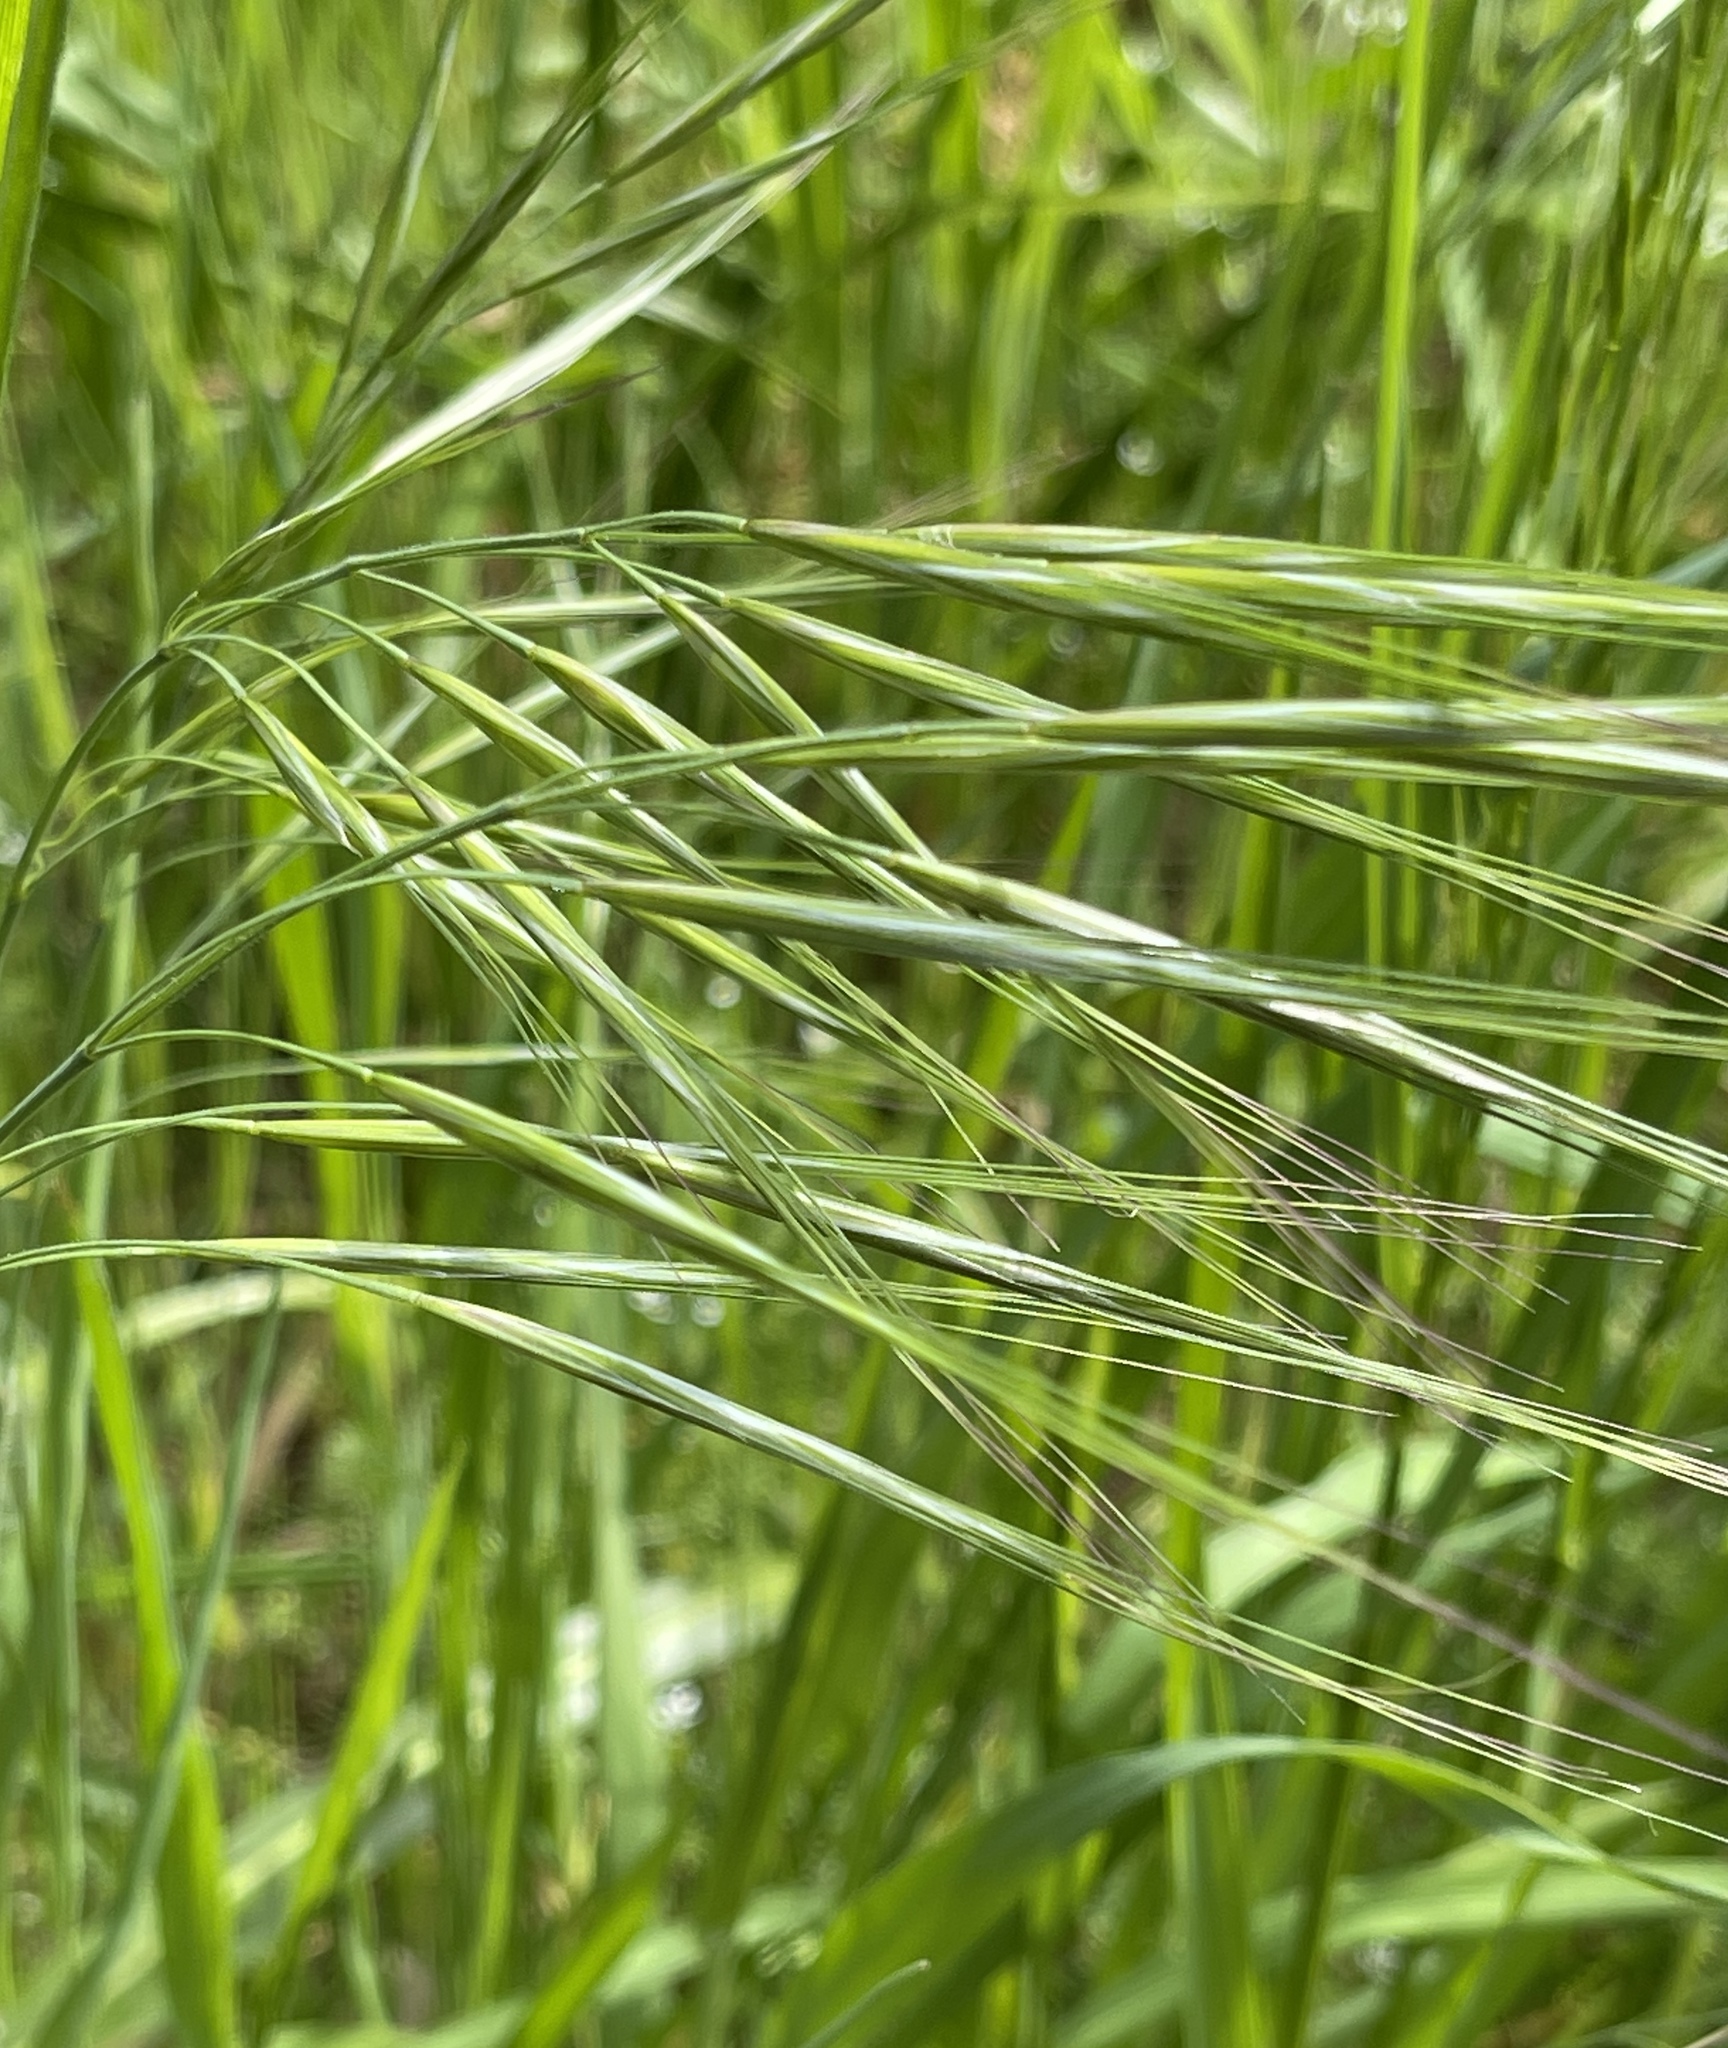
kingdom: Plantae
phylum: Tracheophyta
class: Liliopsida
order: Poales
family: Poaceae
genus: Bromus
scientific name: Bromus diandrus
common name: Ripgut brome
